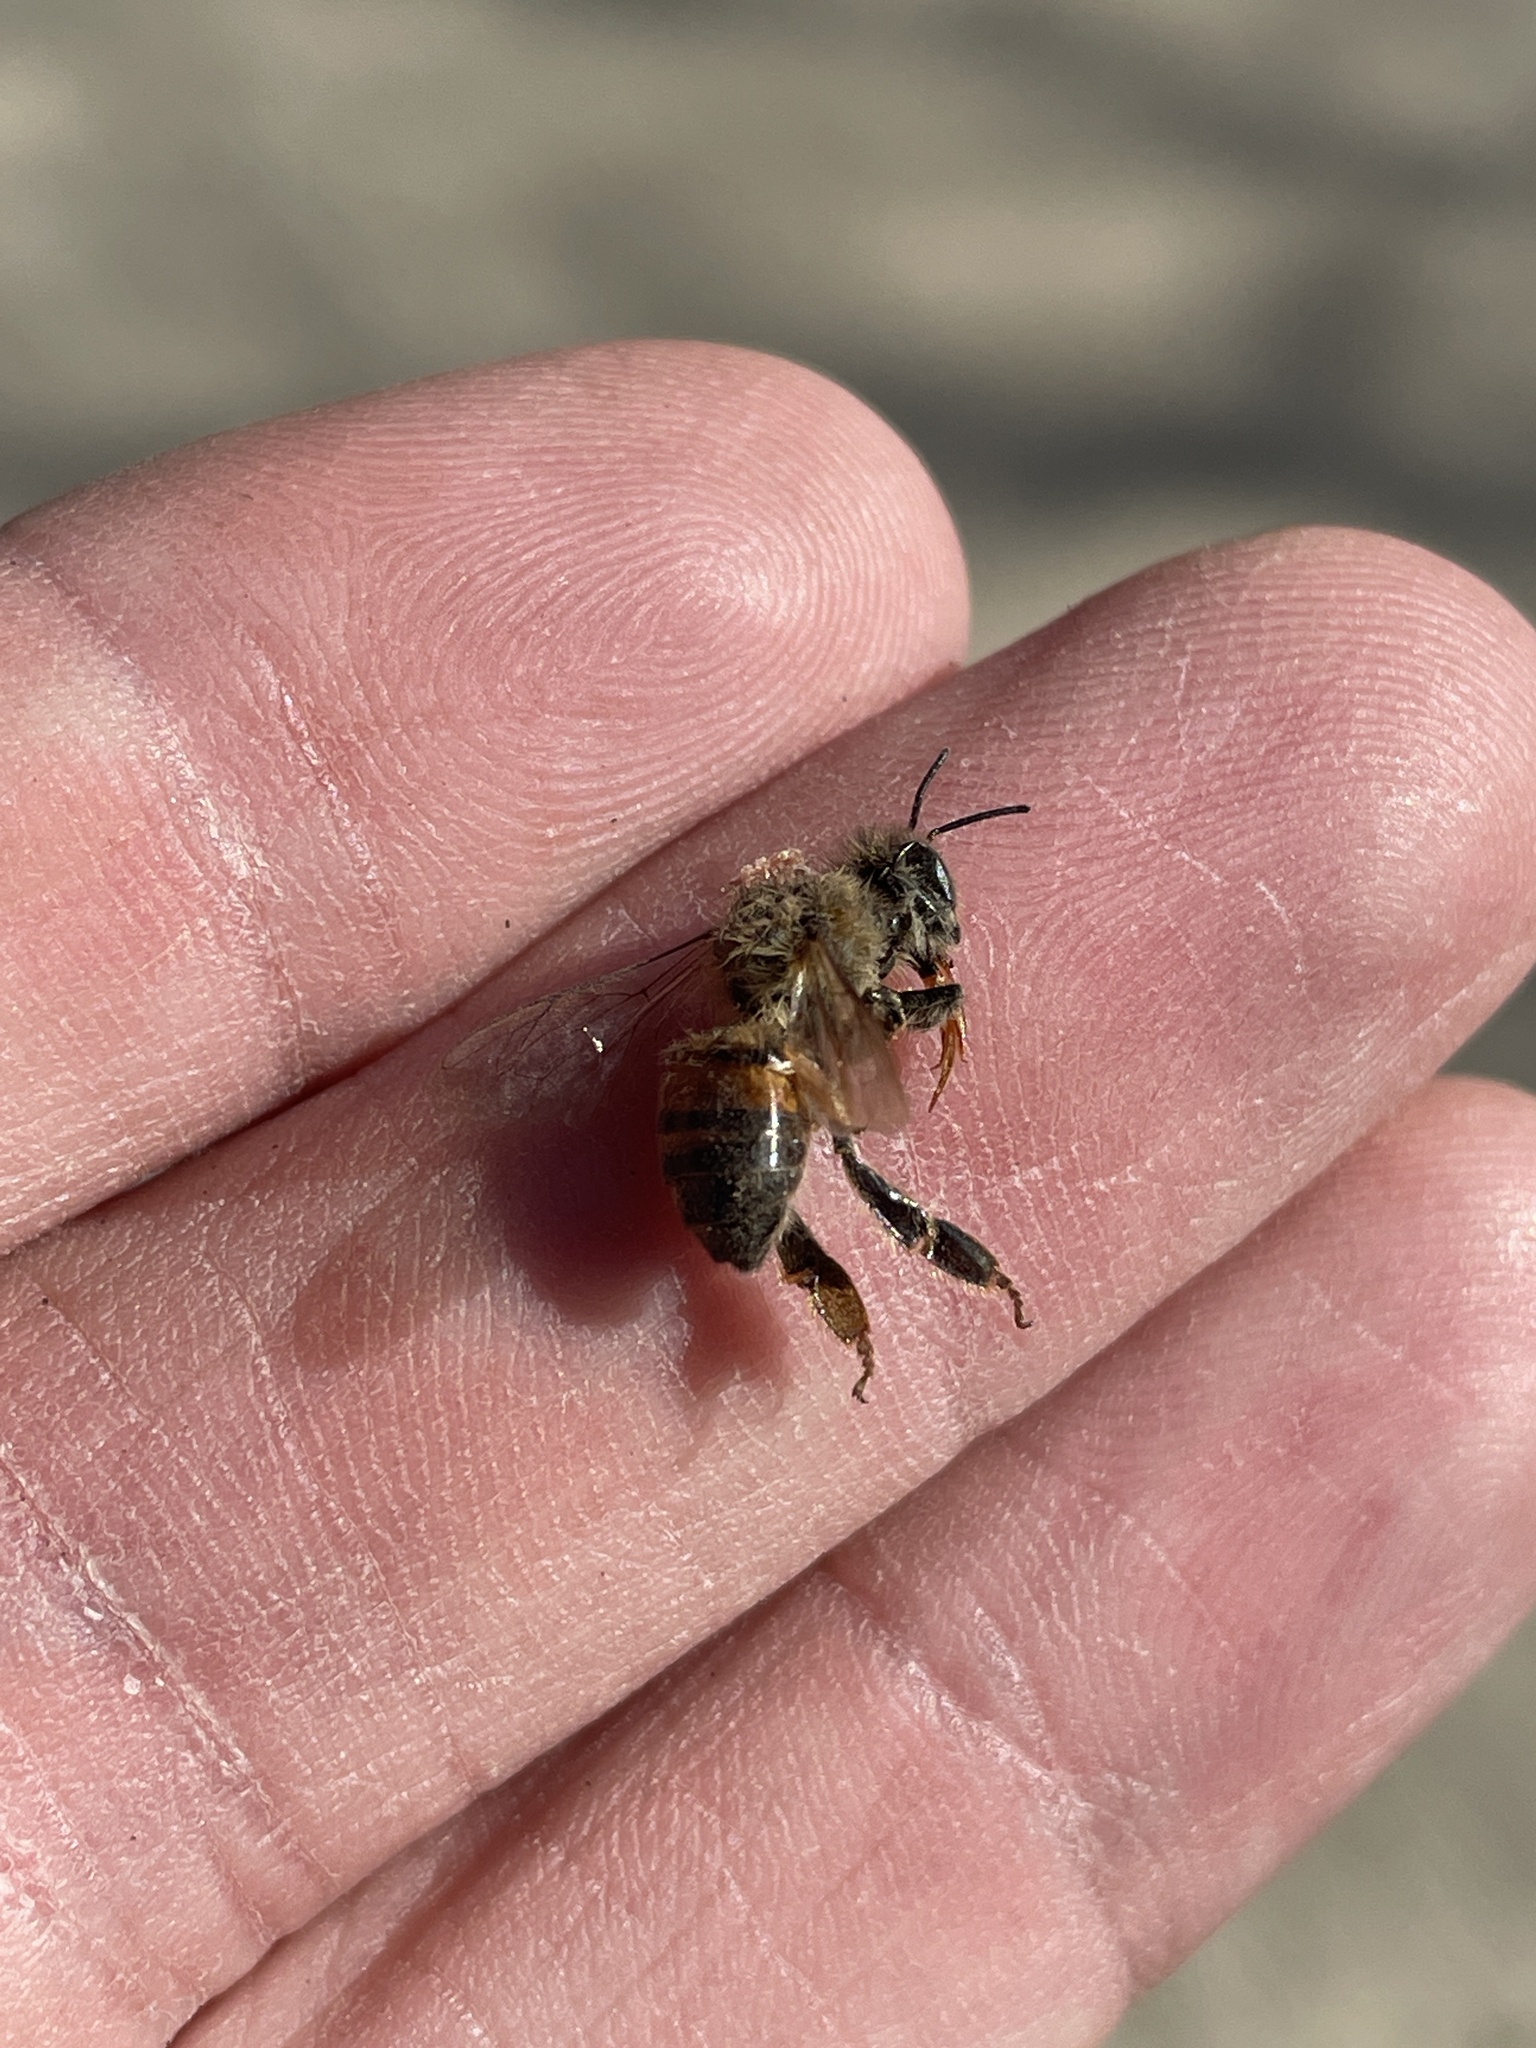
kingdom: Animalia
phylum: Arthropoda
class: Insecta
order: Hymenoptera
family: Apidae
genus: Apis
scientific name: Apis mellifera
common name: Honey bee
